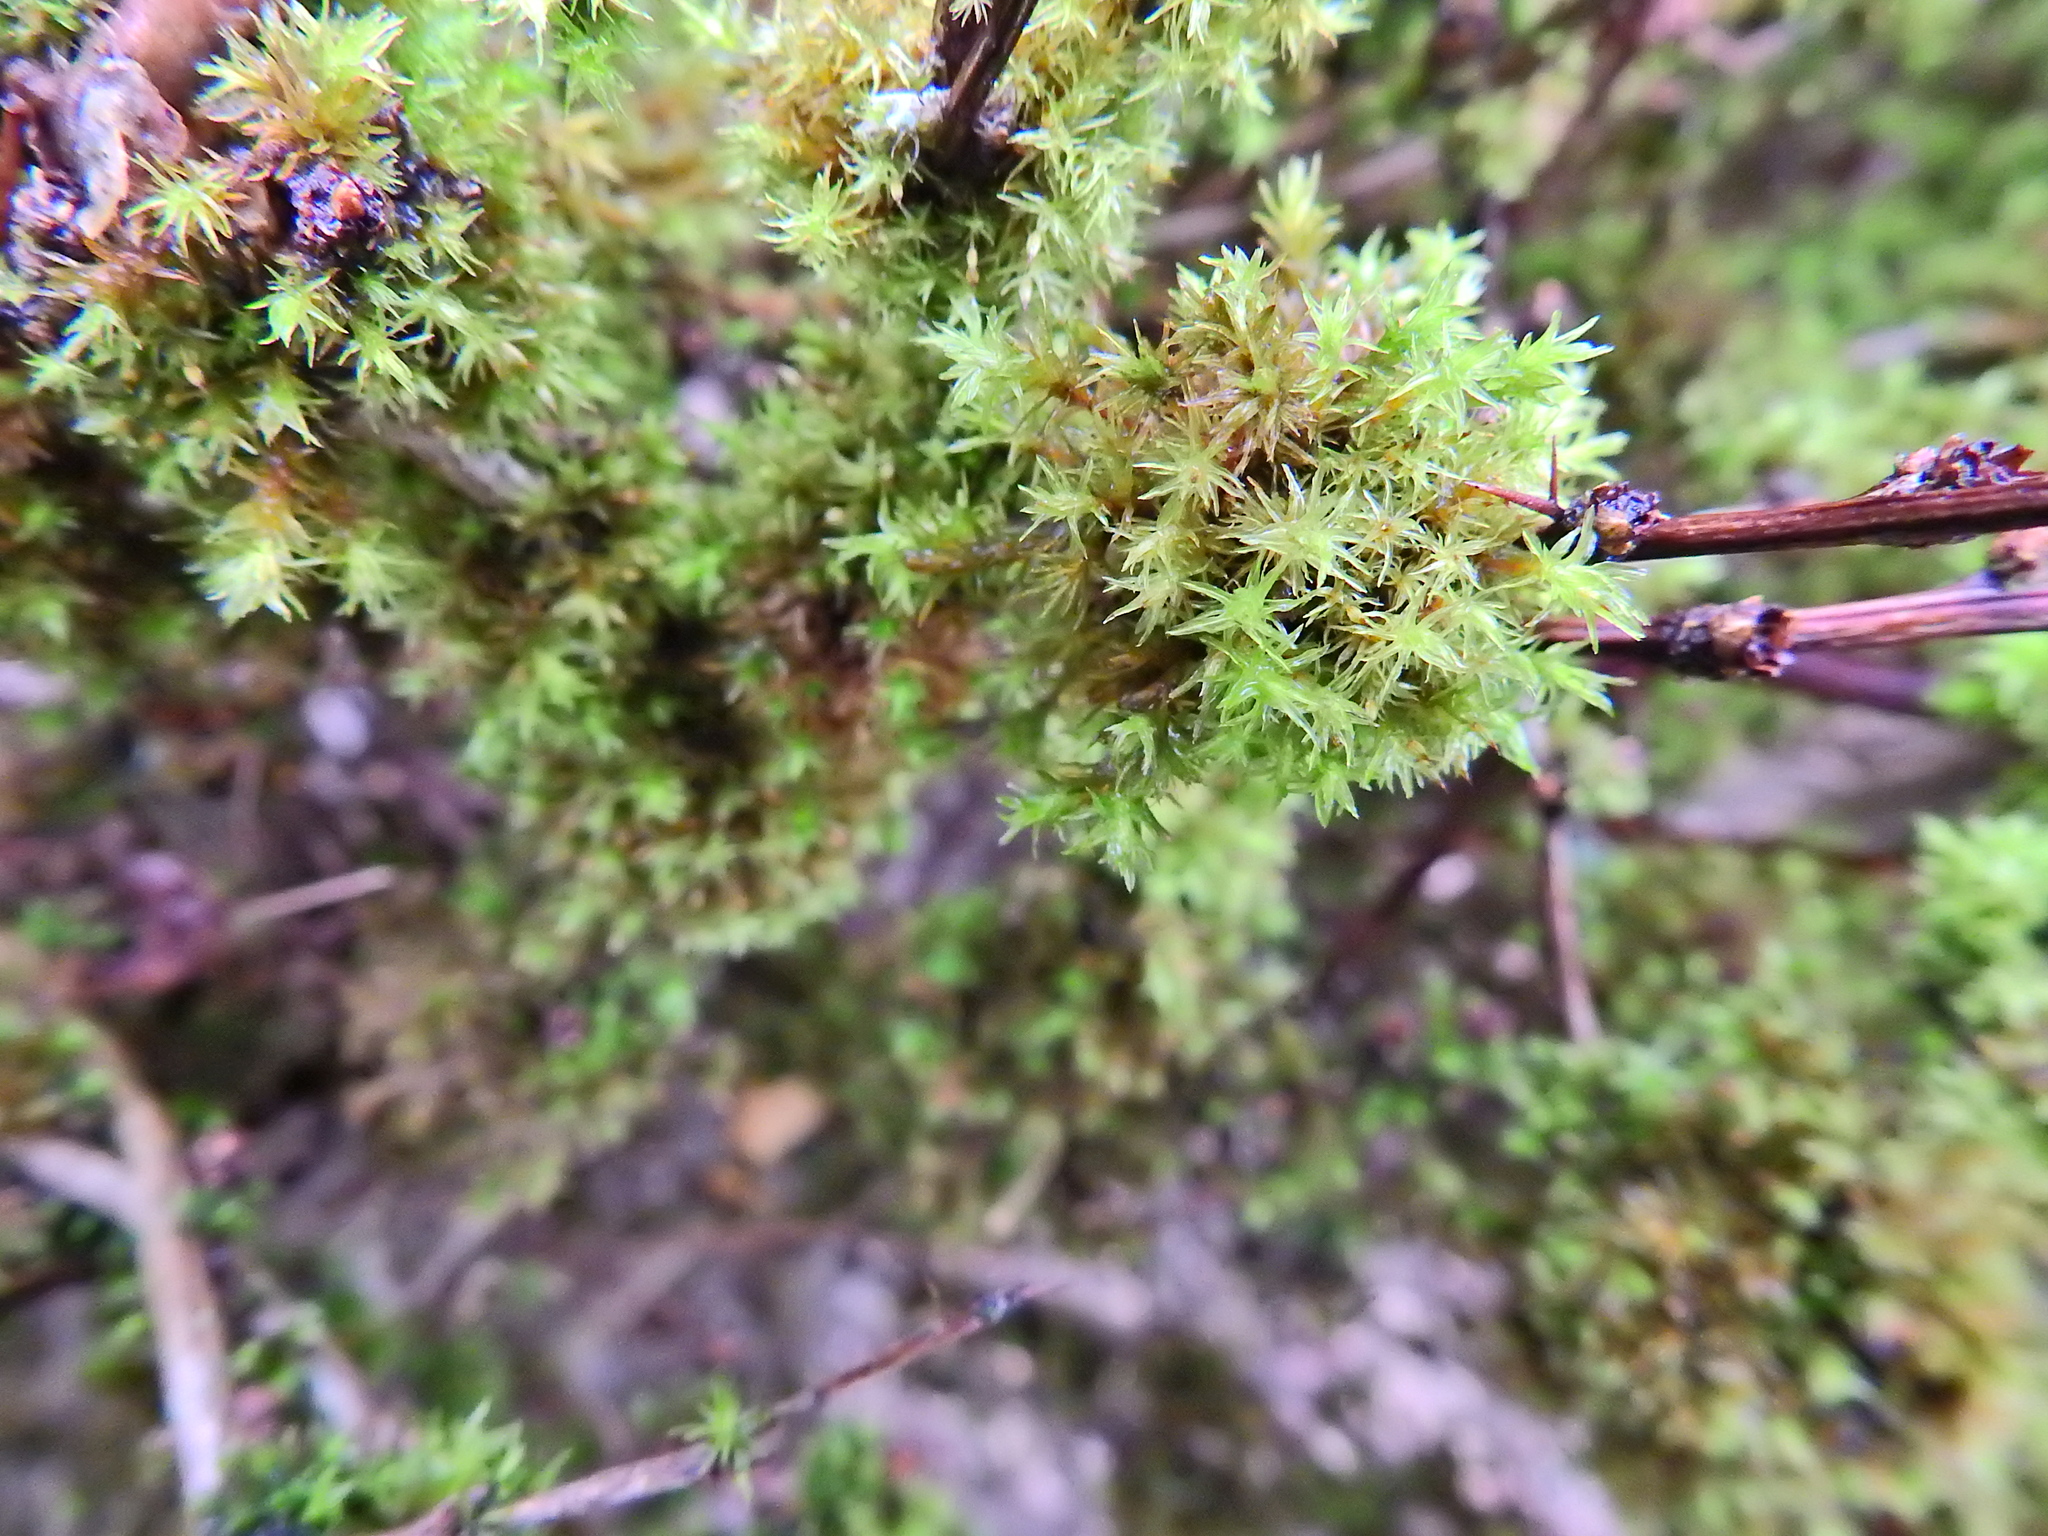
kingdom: Plantae
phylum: Bryophyta
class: Bryopsida
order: Orthotrichales
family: Orthotrichaceae
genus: Lewinskya
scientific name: Lewinskya affinis
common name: Wood bristle-moss
